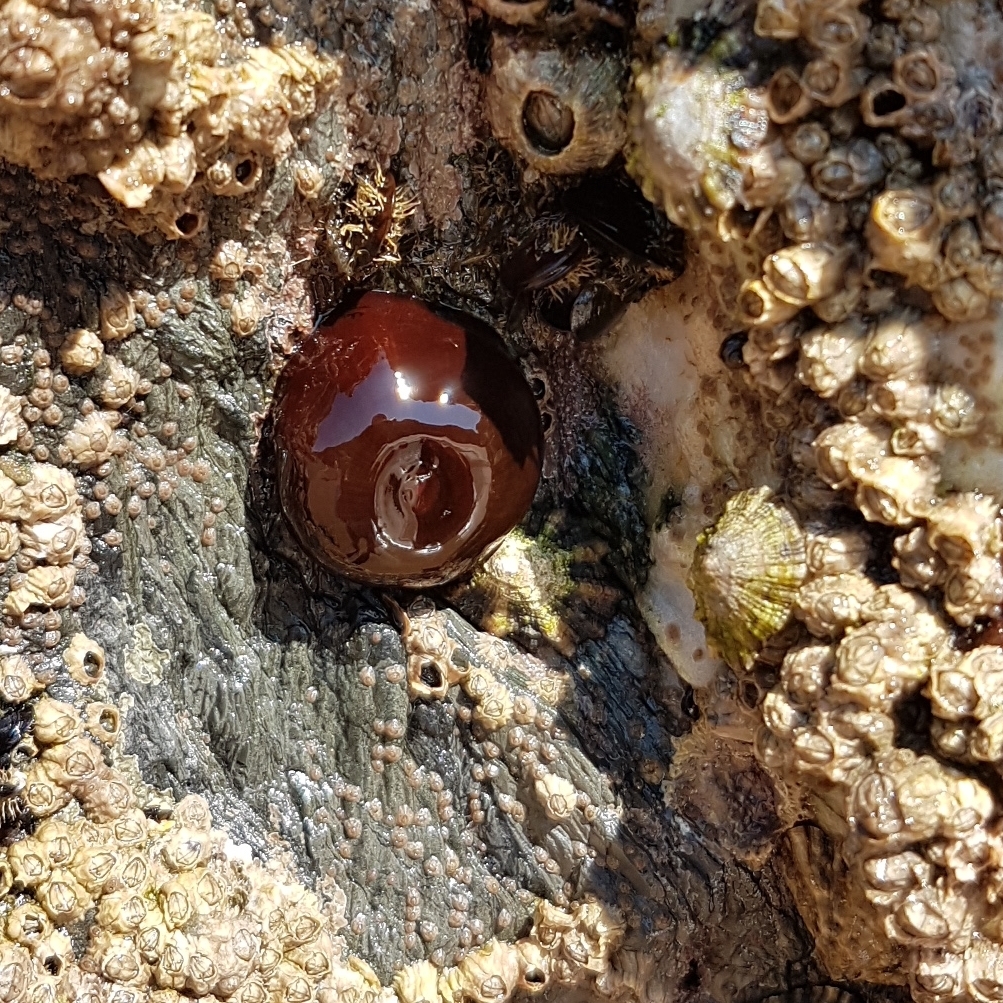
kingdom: Animalia
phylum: Cnidaria
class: Anthozoa
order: Actiniaria
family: Actiniidae
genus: Actinia
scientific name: Actinia equina
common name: Beadlet anemone
